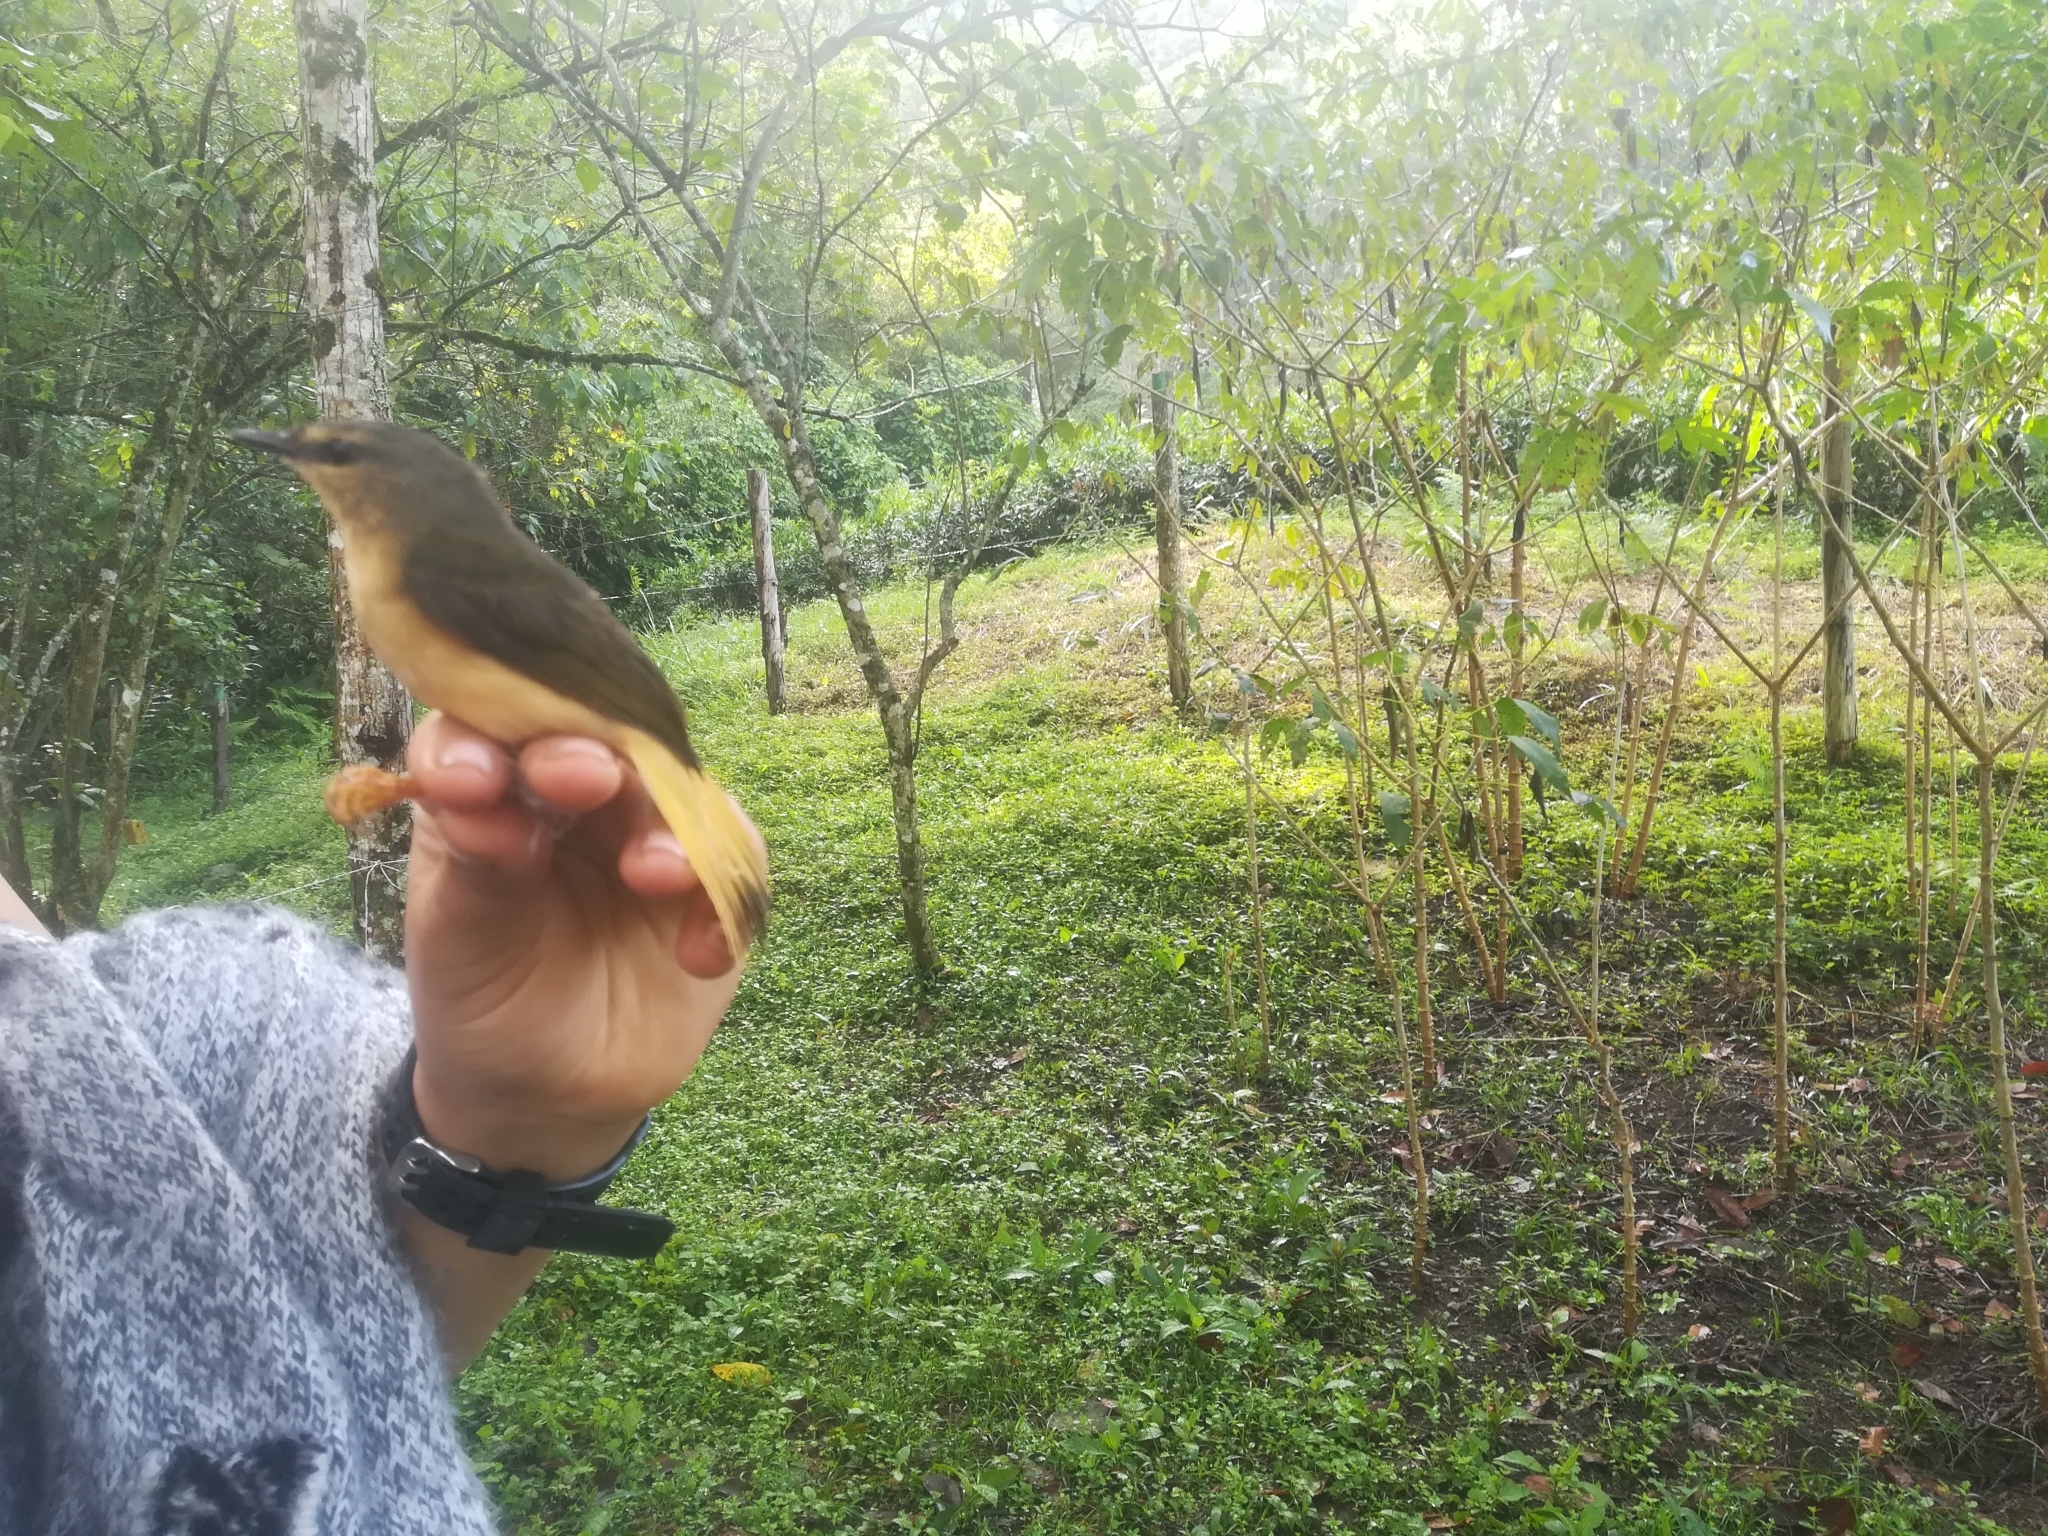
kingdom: Animalia
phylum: Chordata
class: Aves
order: Passeriformes
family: Parulidae
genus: Myiothlypis
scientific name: Myiothlypis fulvicauda
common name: Buff-rumped warbler
